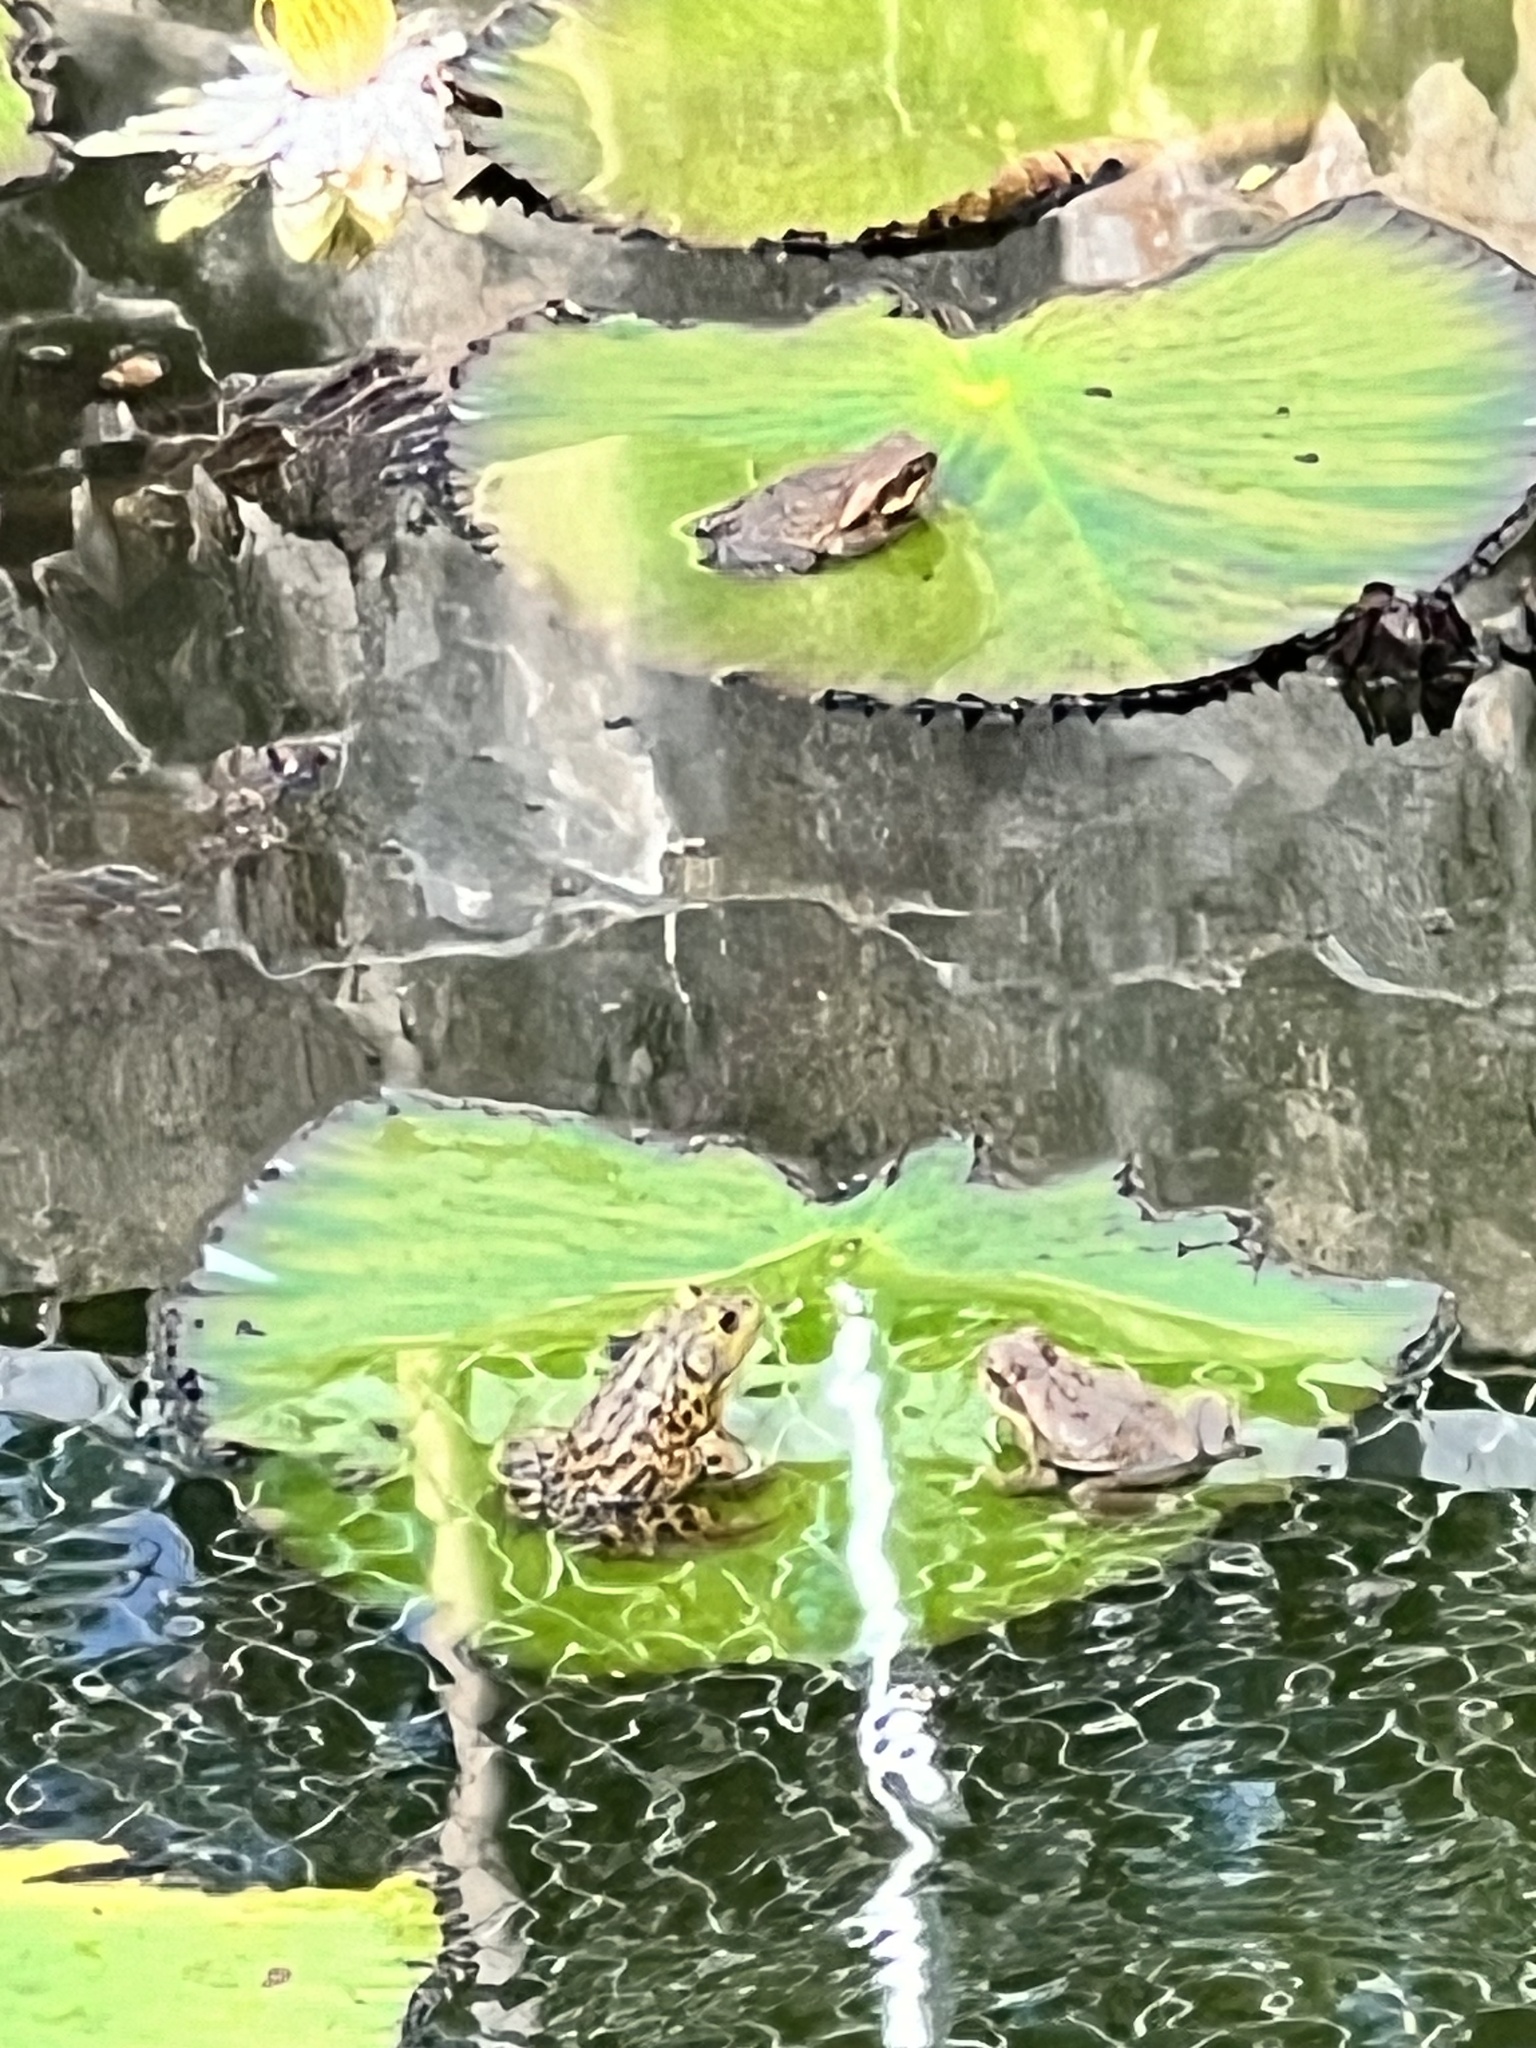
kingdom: Animalia
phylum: Chordata
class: Amphibia
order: Anura
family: Bufonidae
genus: Rhinella
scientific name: Rhinella marina
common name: Cane toad
